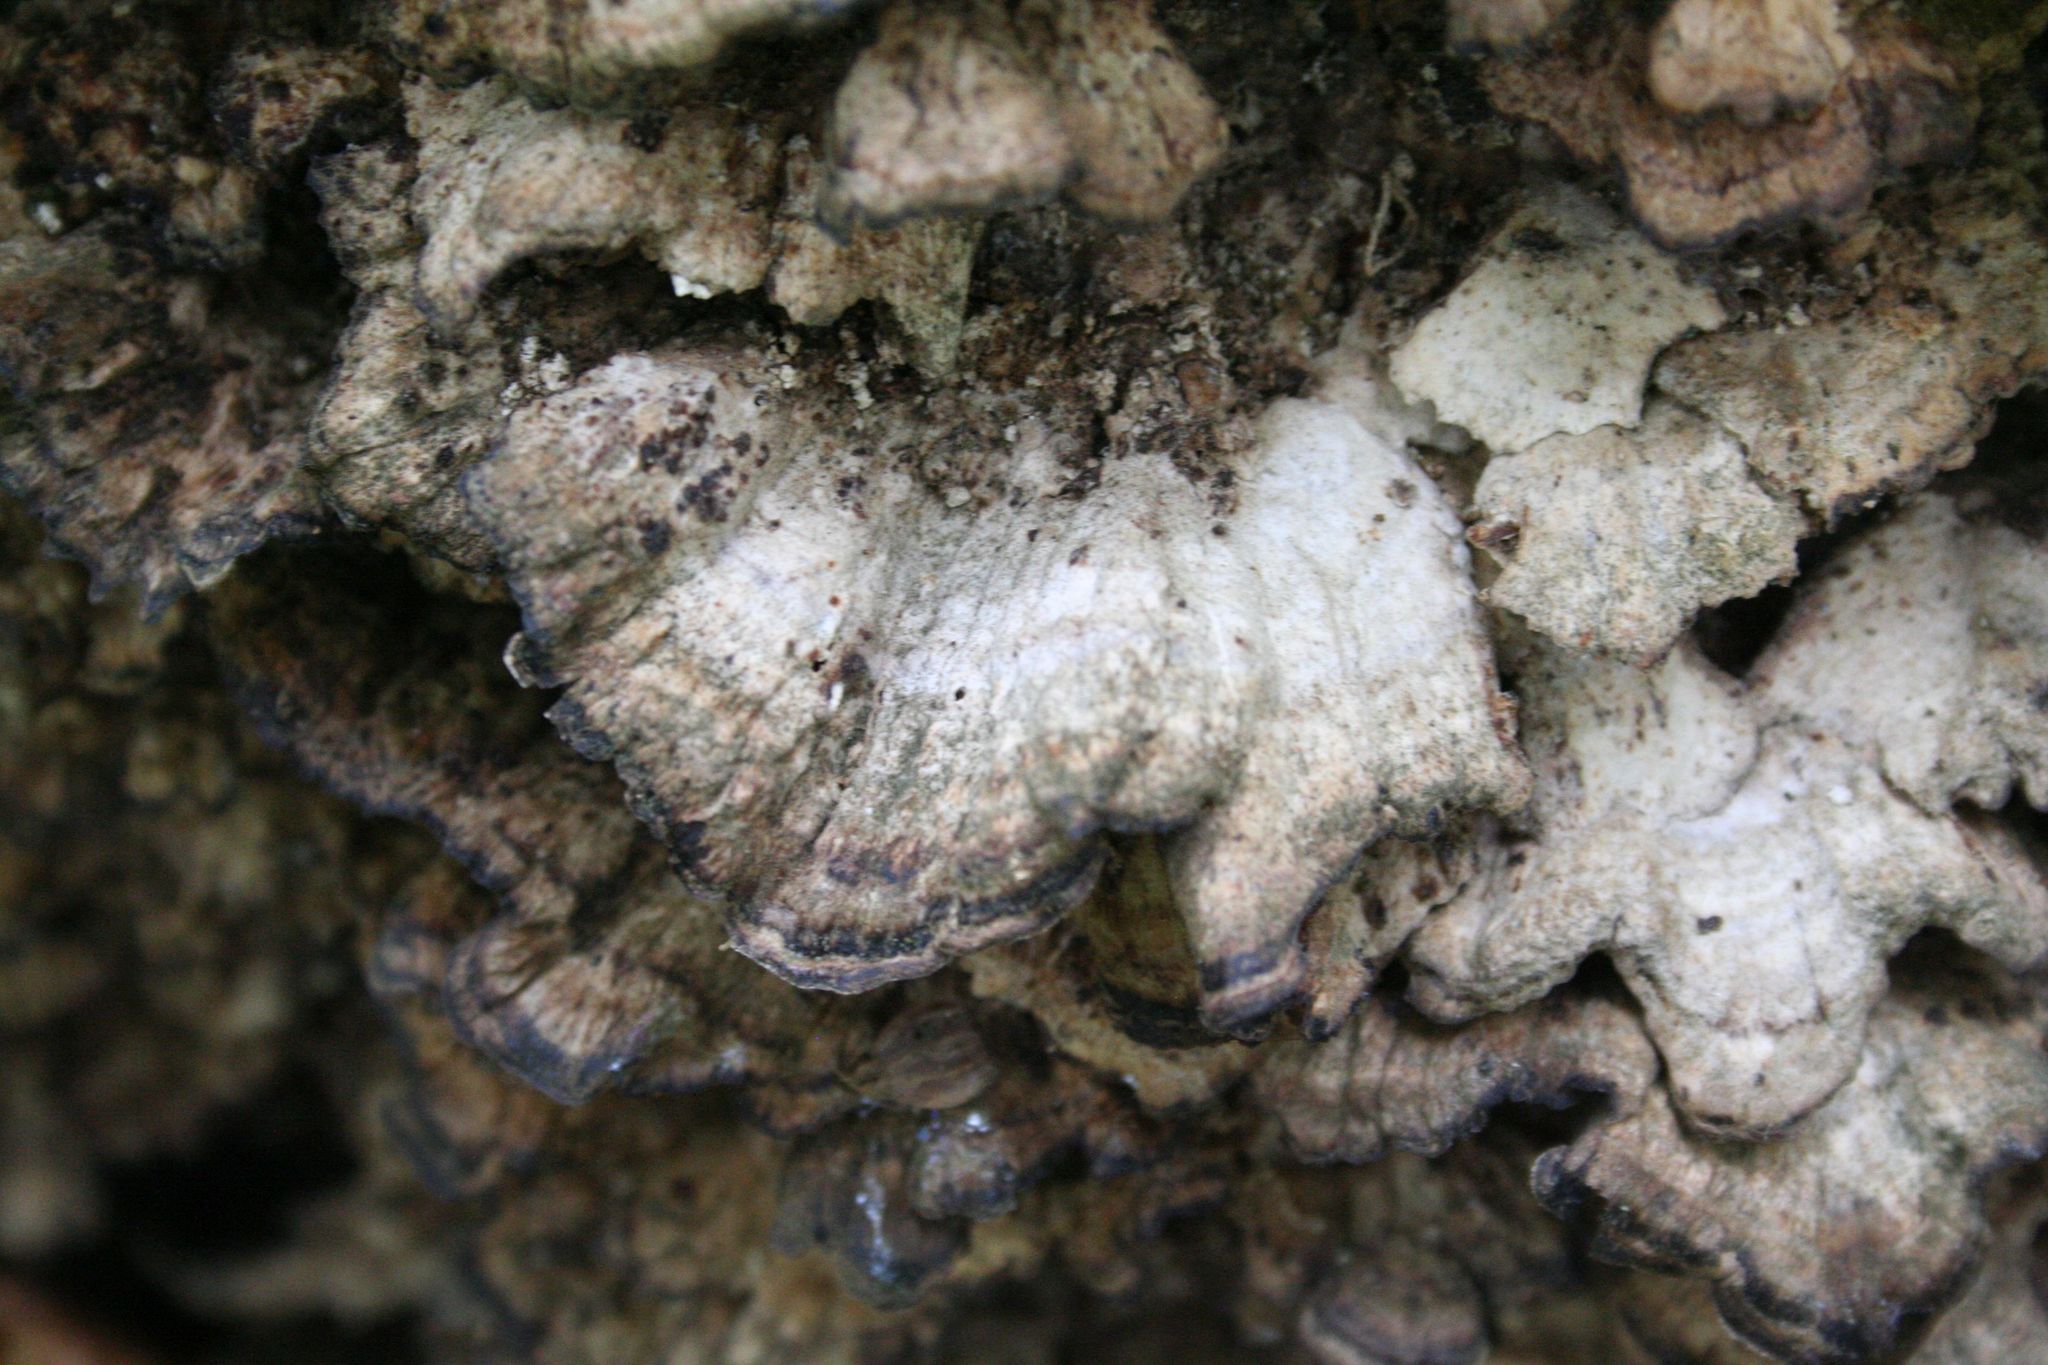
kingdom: Fungi
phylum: Basidiomycota
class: Agaricomycetes
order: Polyporales
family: Phanerochaetaceae
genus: Bjerkandera
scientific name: Bjerkandera adusta
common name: Smoky bracket
